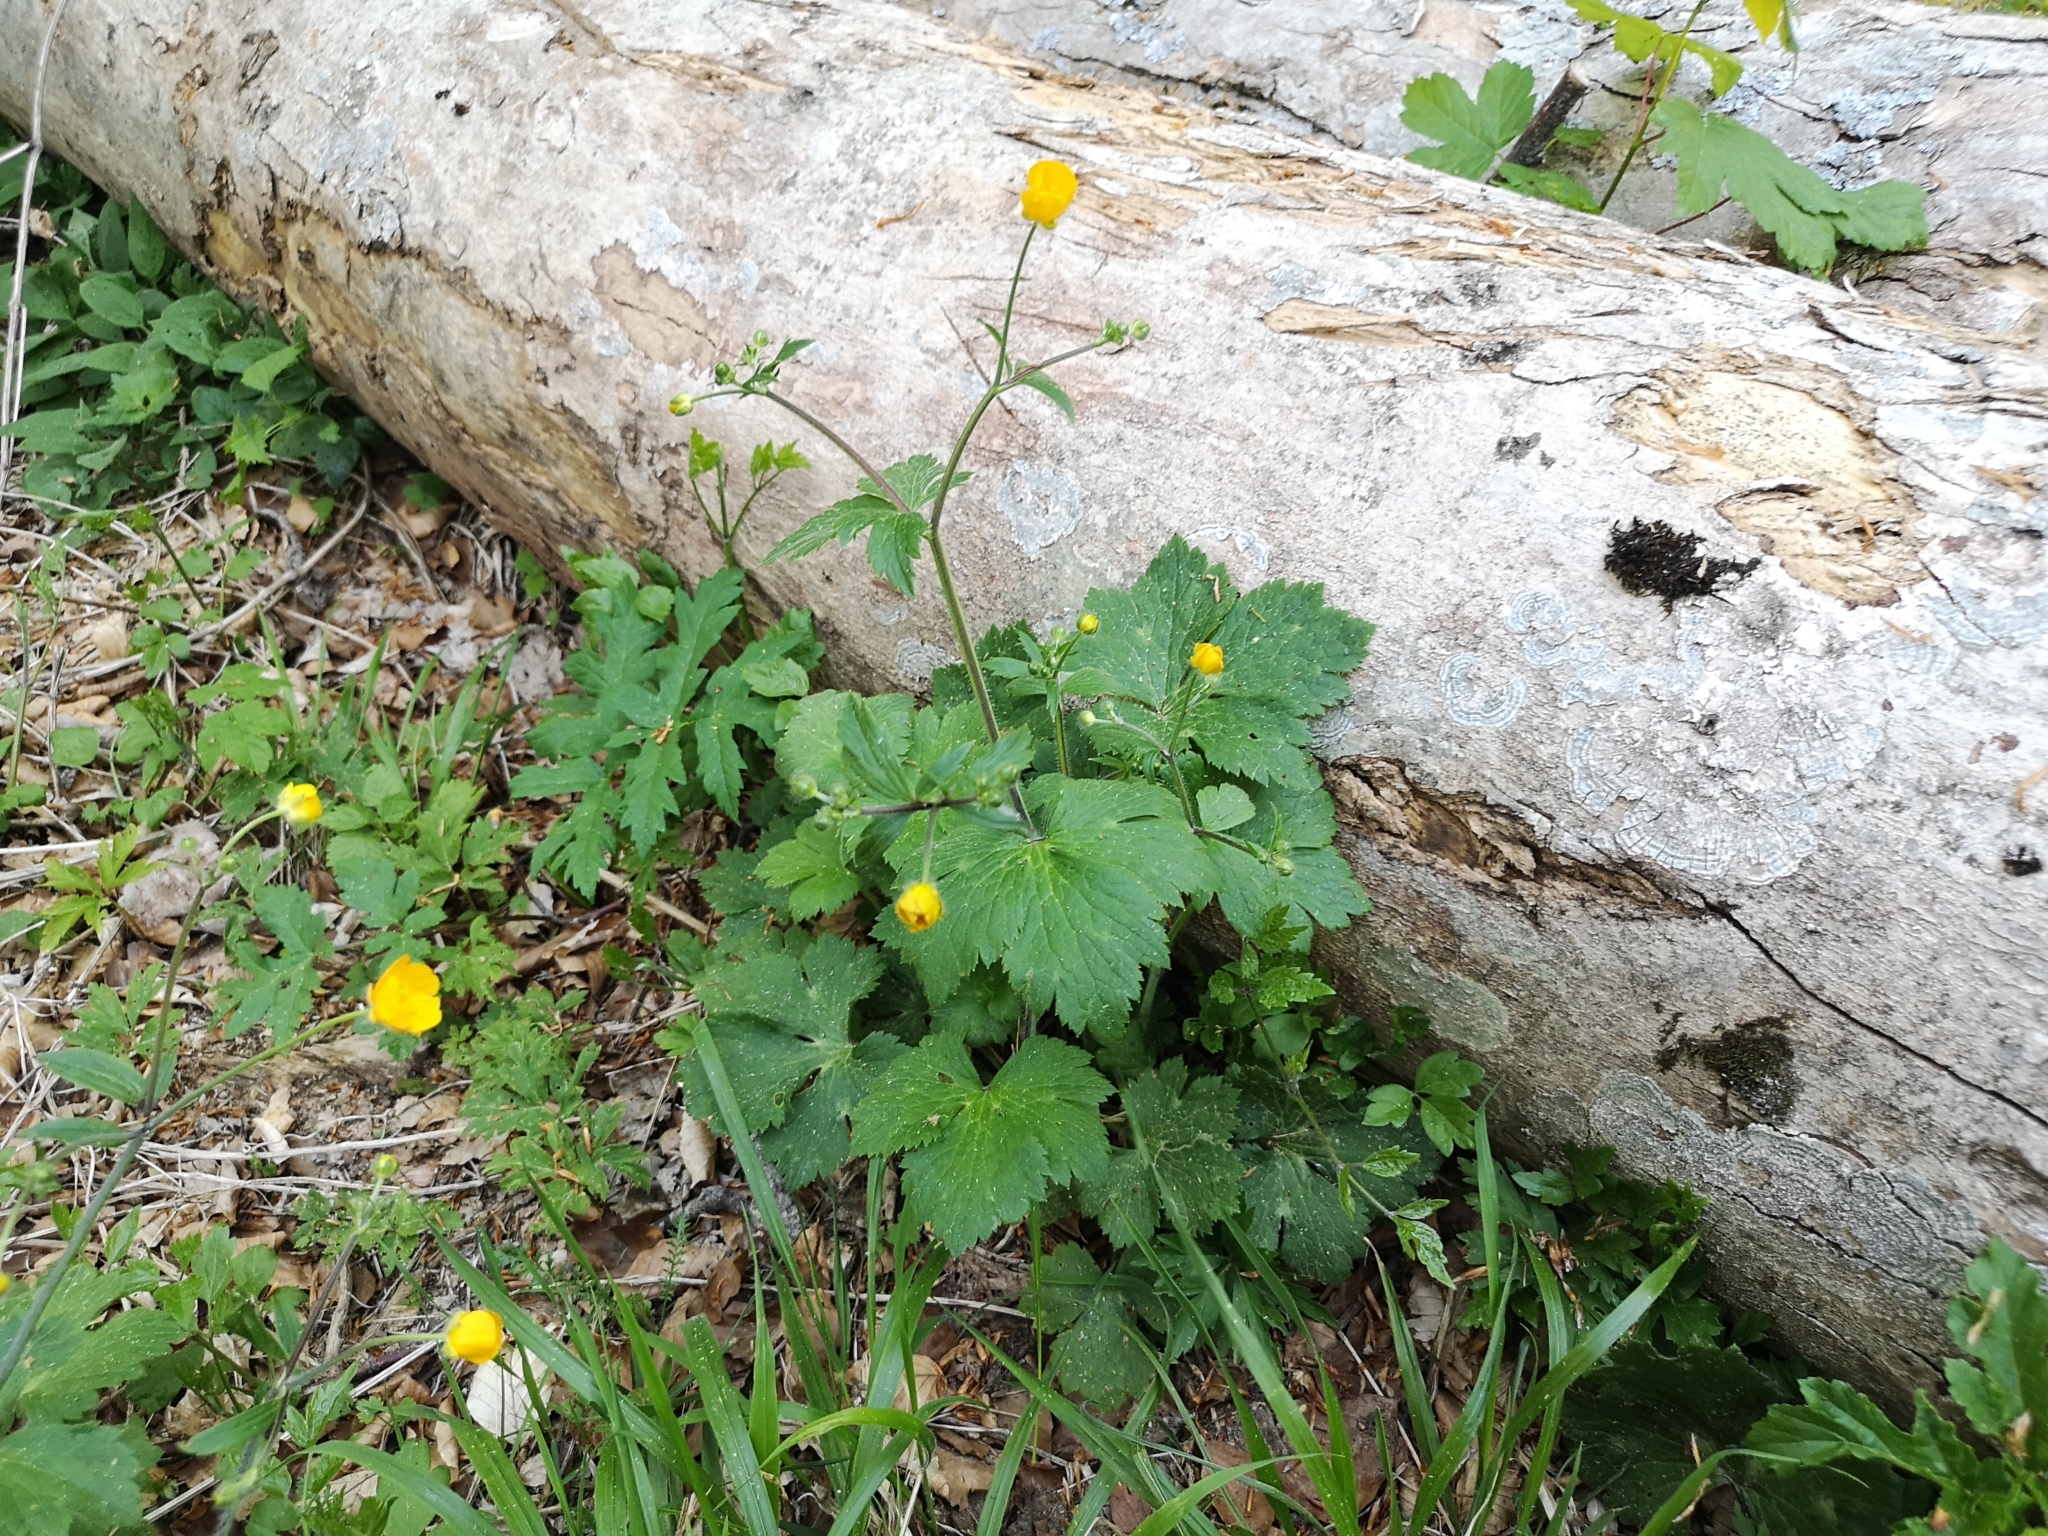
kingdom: Plantae
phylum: Tracheophyta
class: Magnoliopsida
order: Ranunculales
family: Ranunculaceae
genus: Ranunculus
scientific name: Ranunculus lanuginosus
